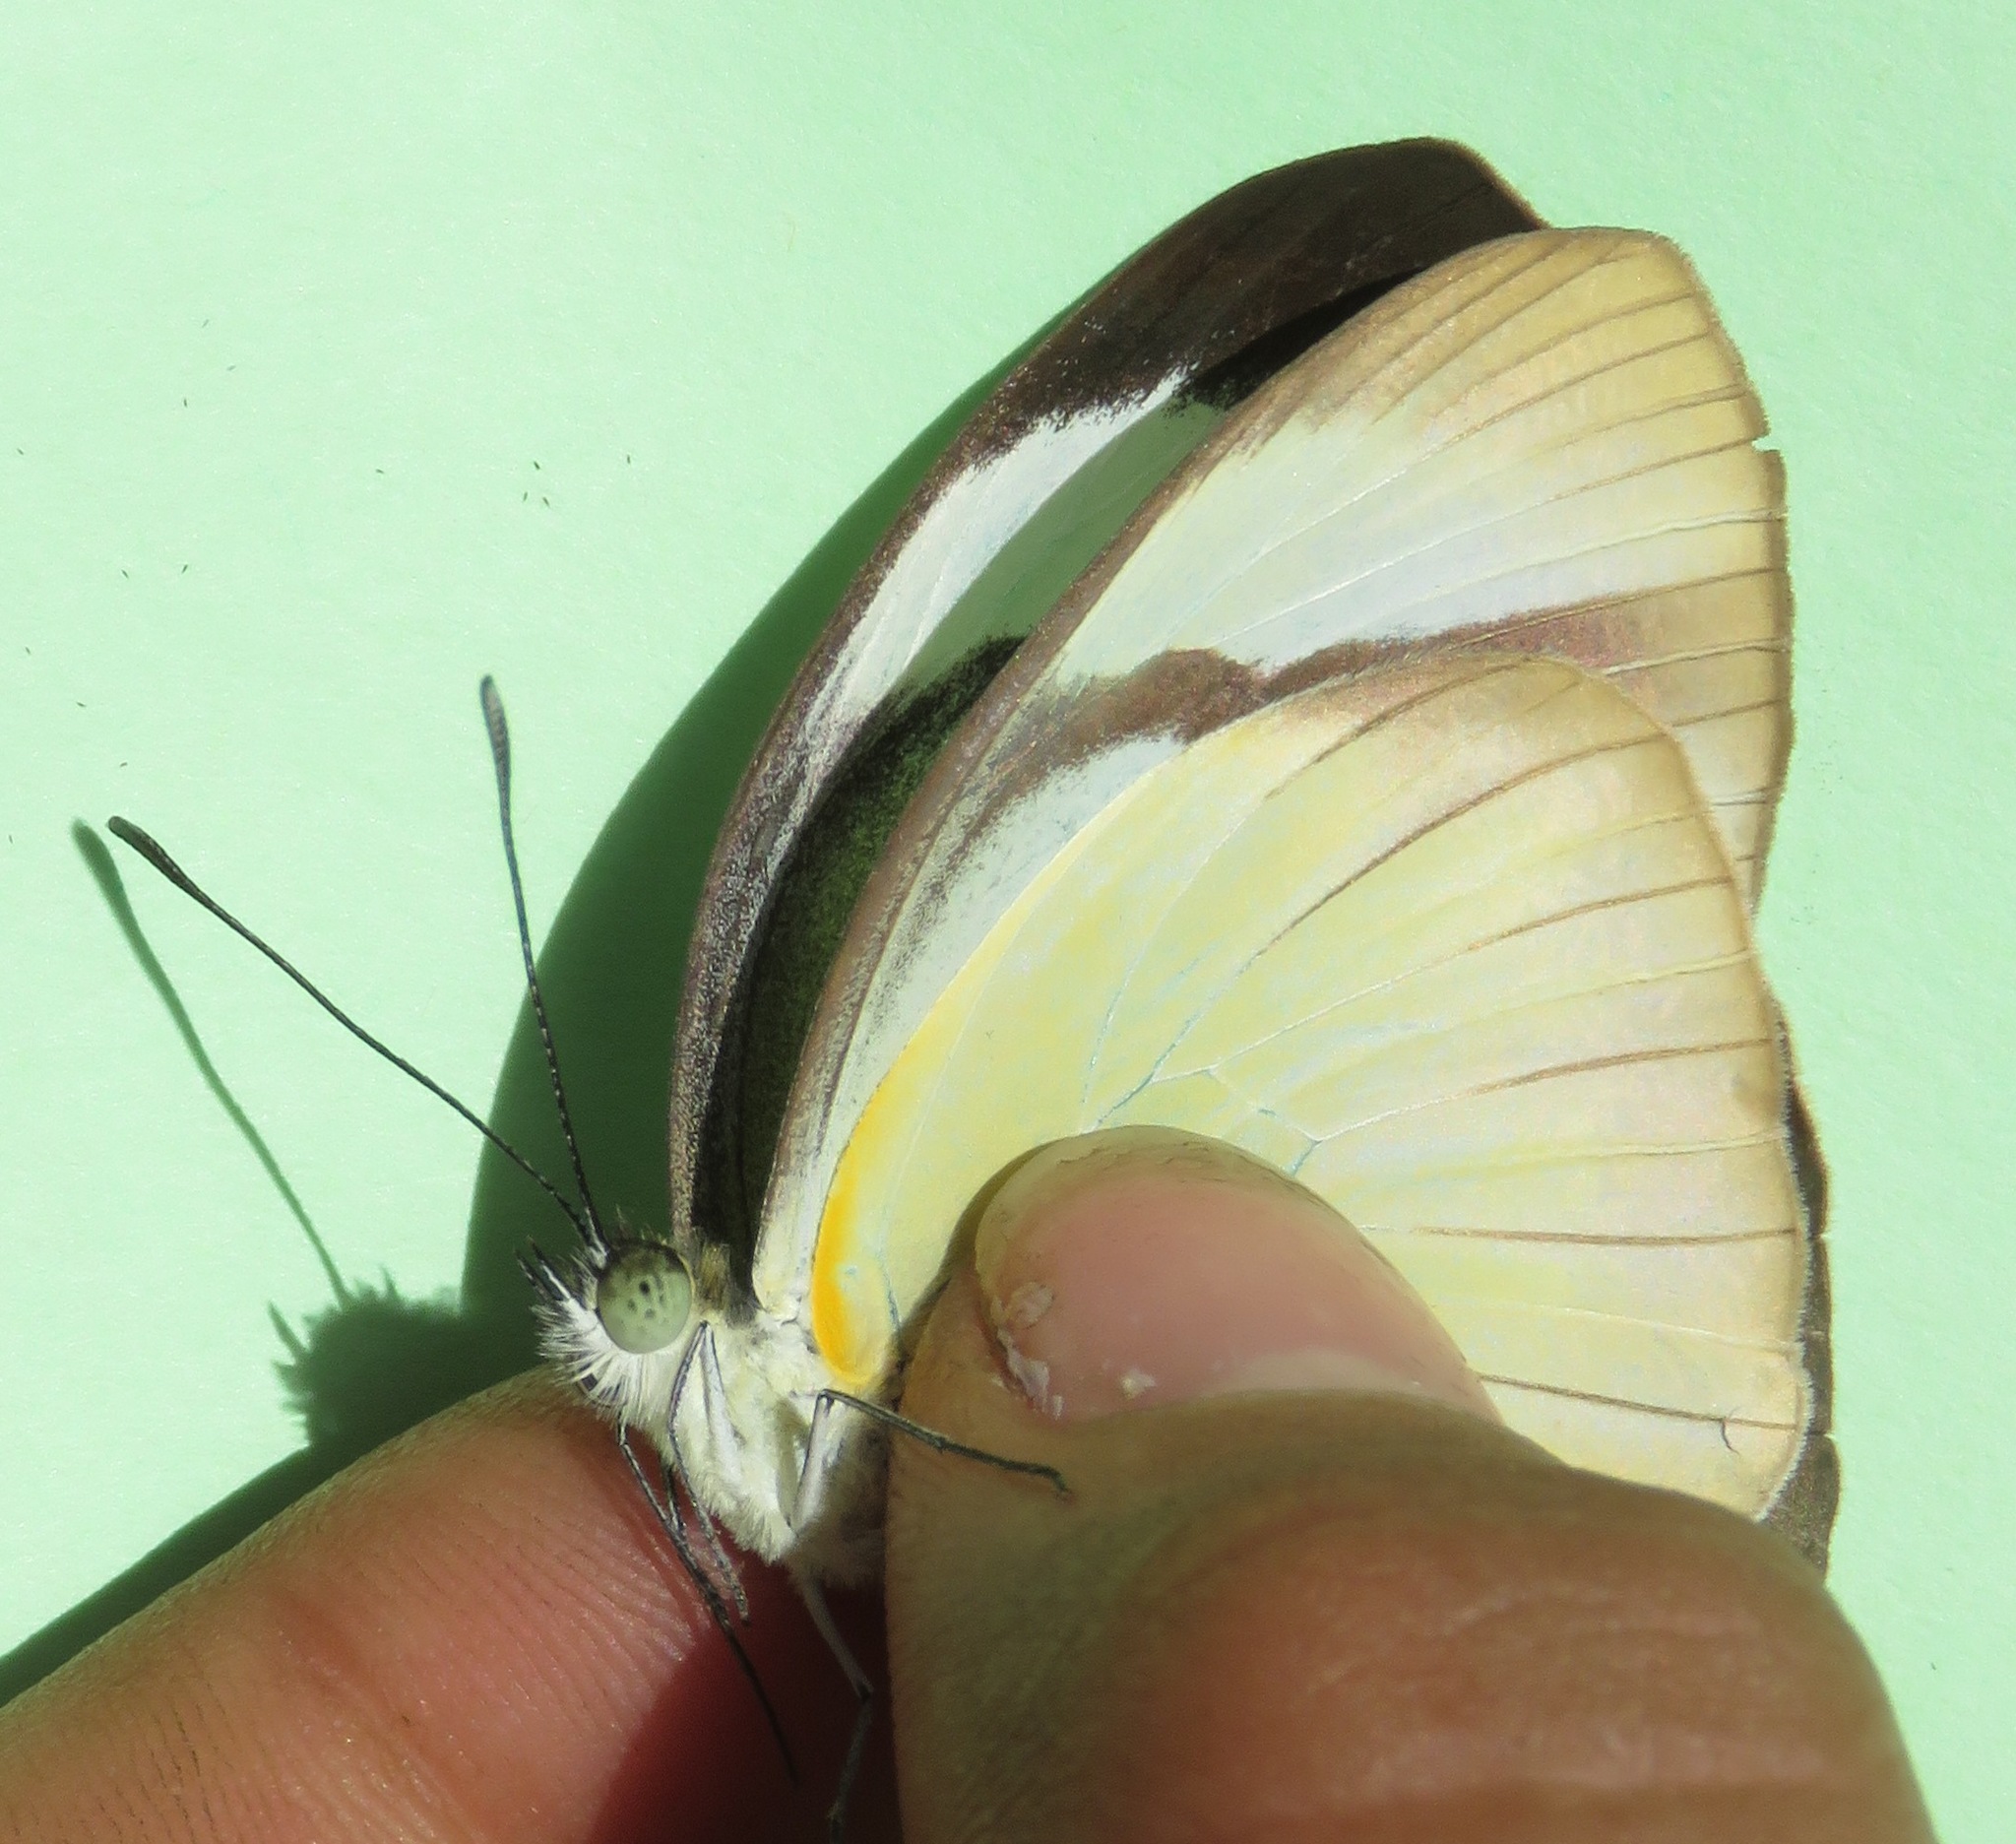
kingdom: Animalia
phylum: Arthropoda
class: Insecta
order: Lepidoptera
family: Pieridae
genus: Itaballia
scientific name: Itaballia demophile
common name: Cross-barred white
